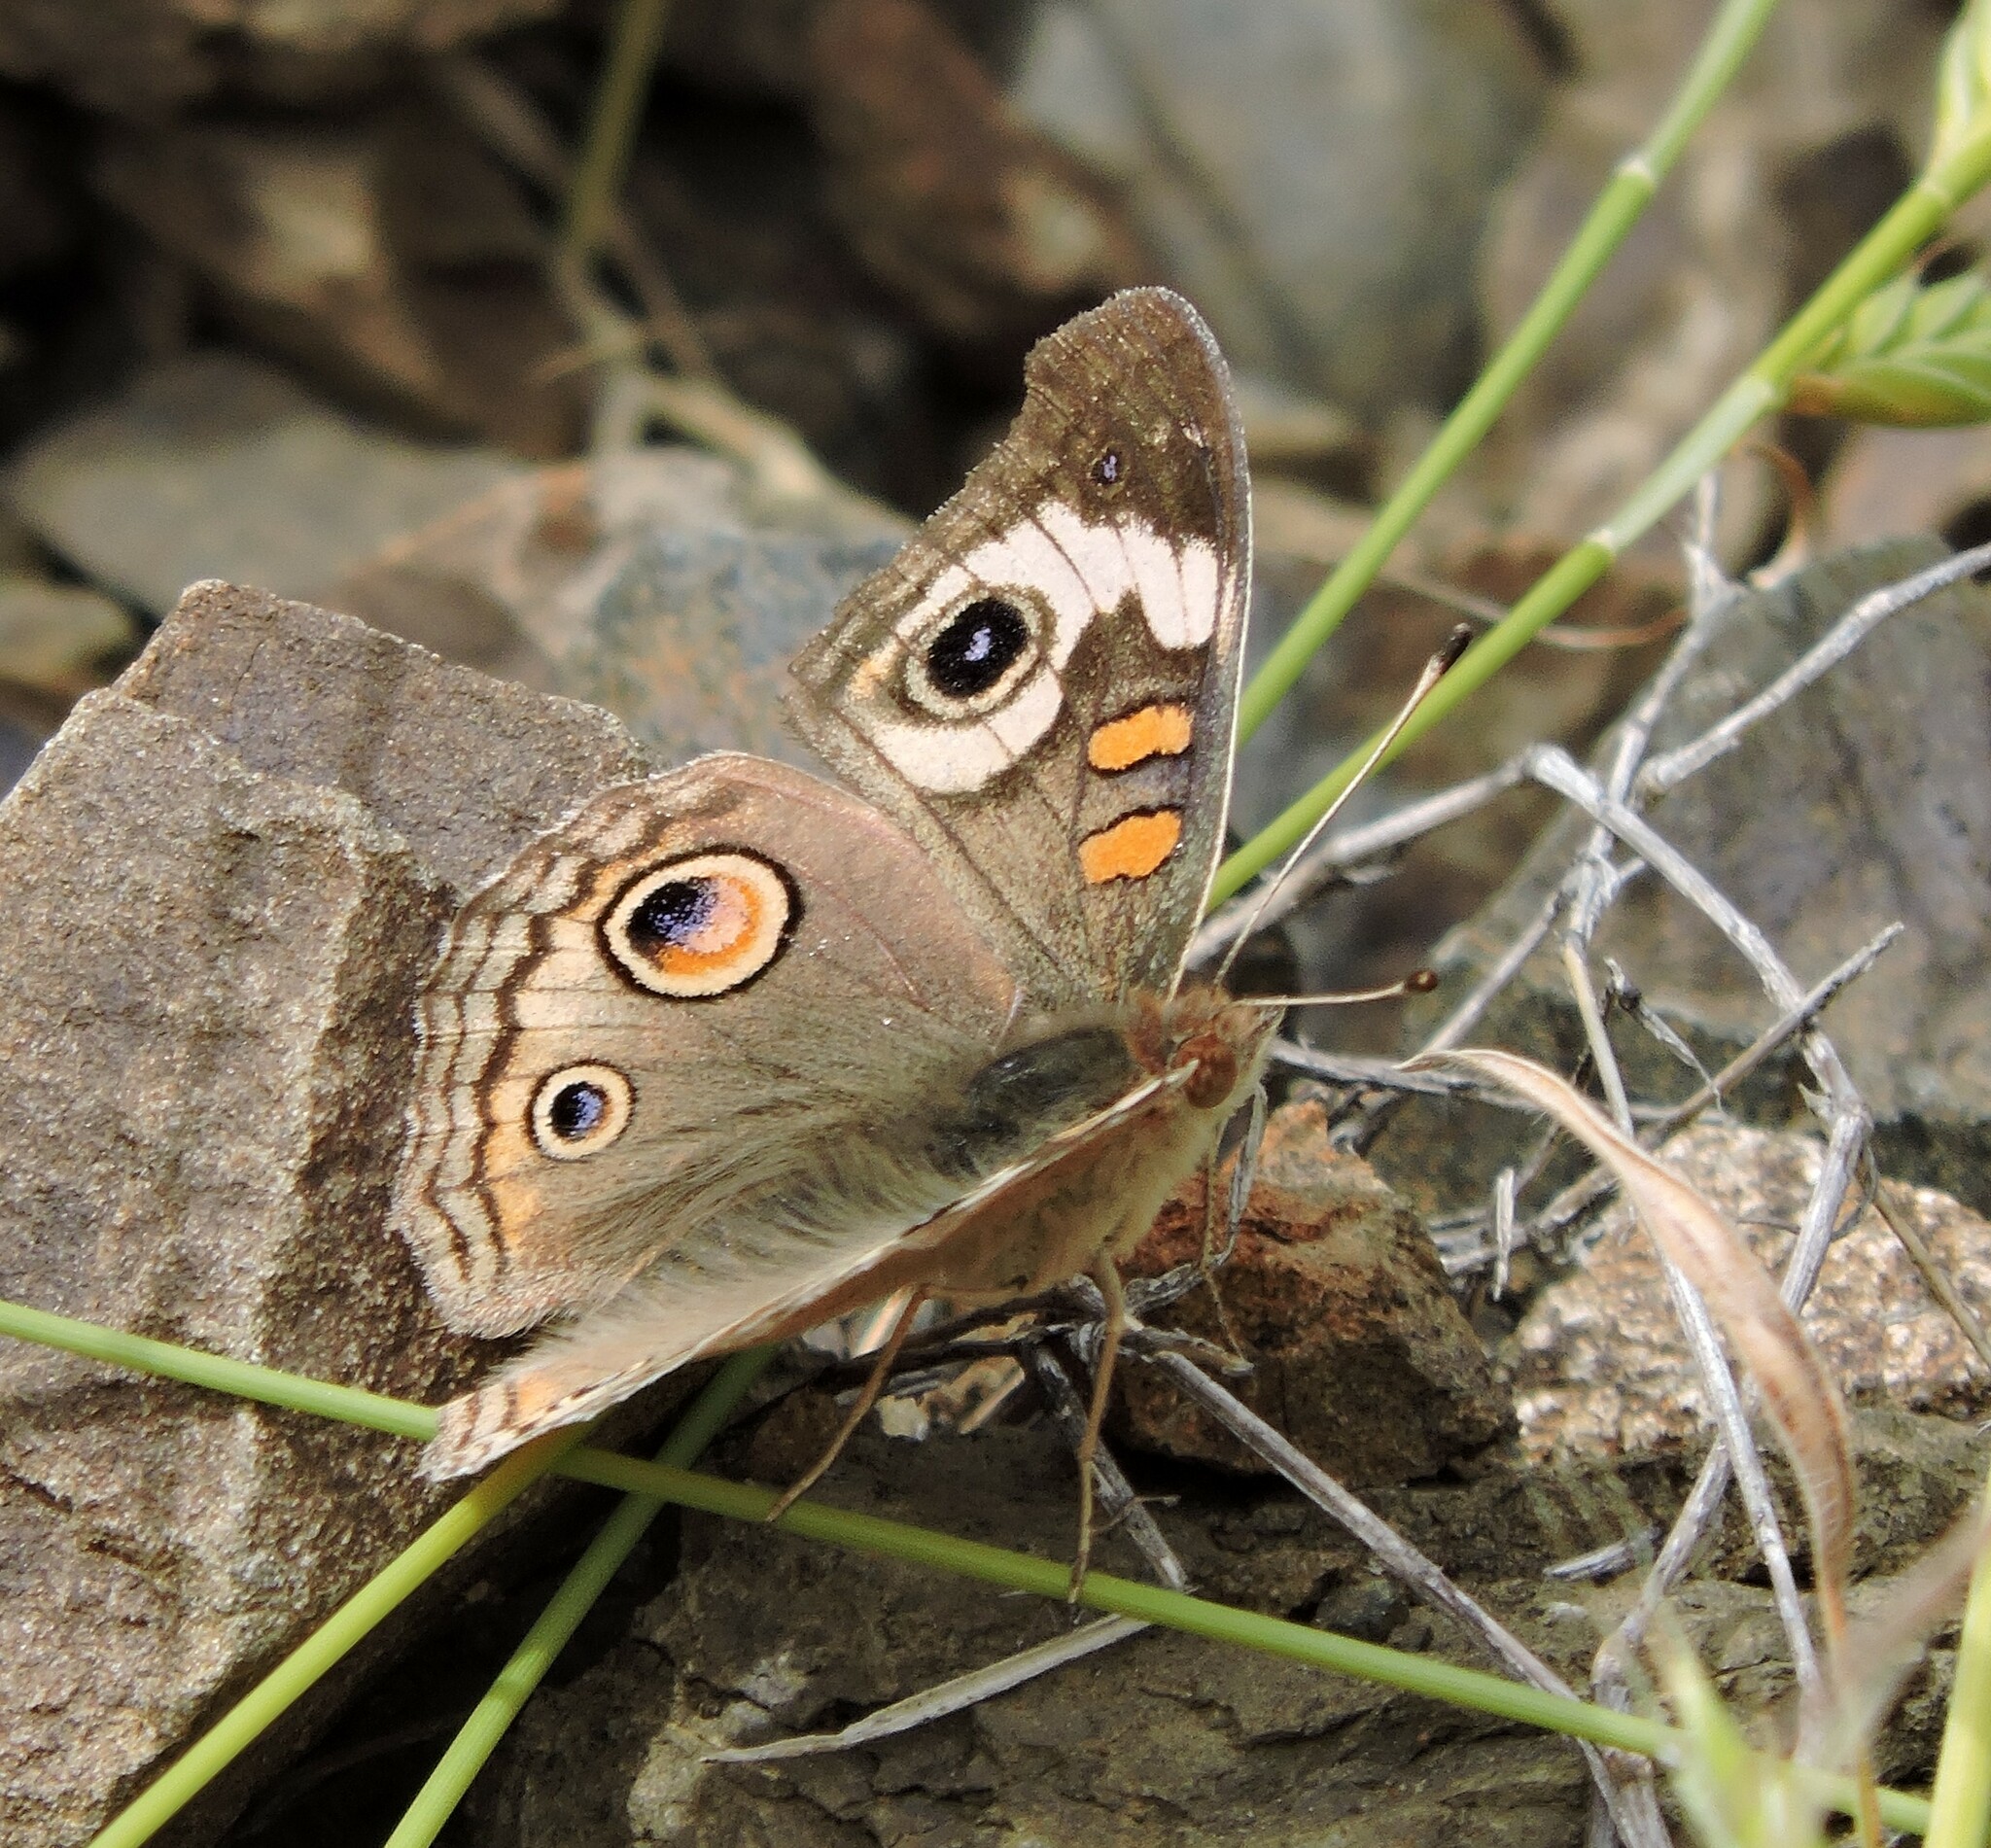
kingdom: Animalia
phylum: Arthropoda
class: Insecta
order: Lepidoptera
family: Nymphalidae
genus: Junonia
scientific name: Junonia grisea
